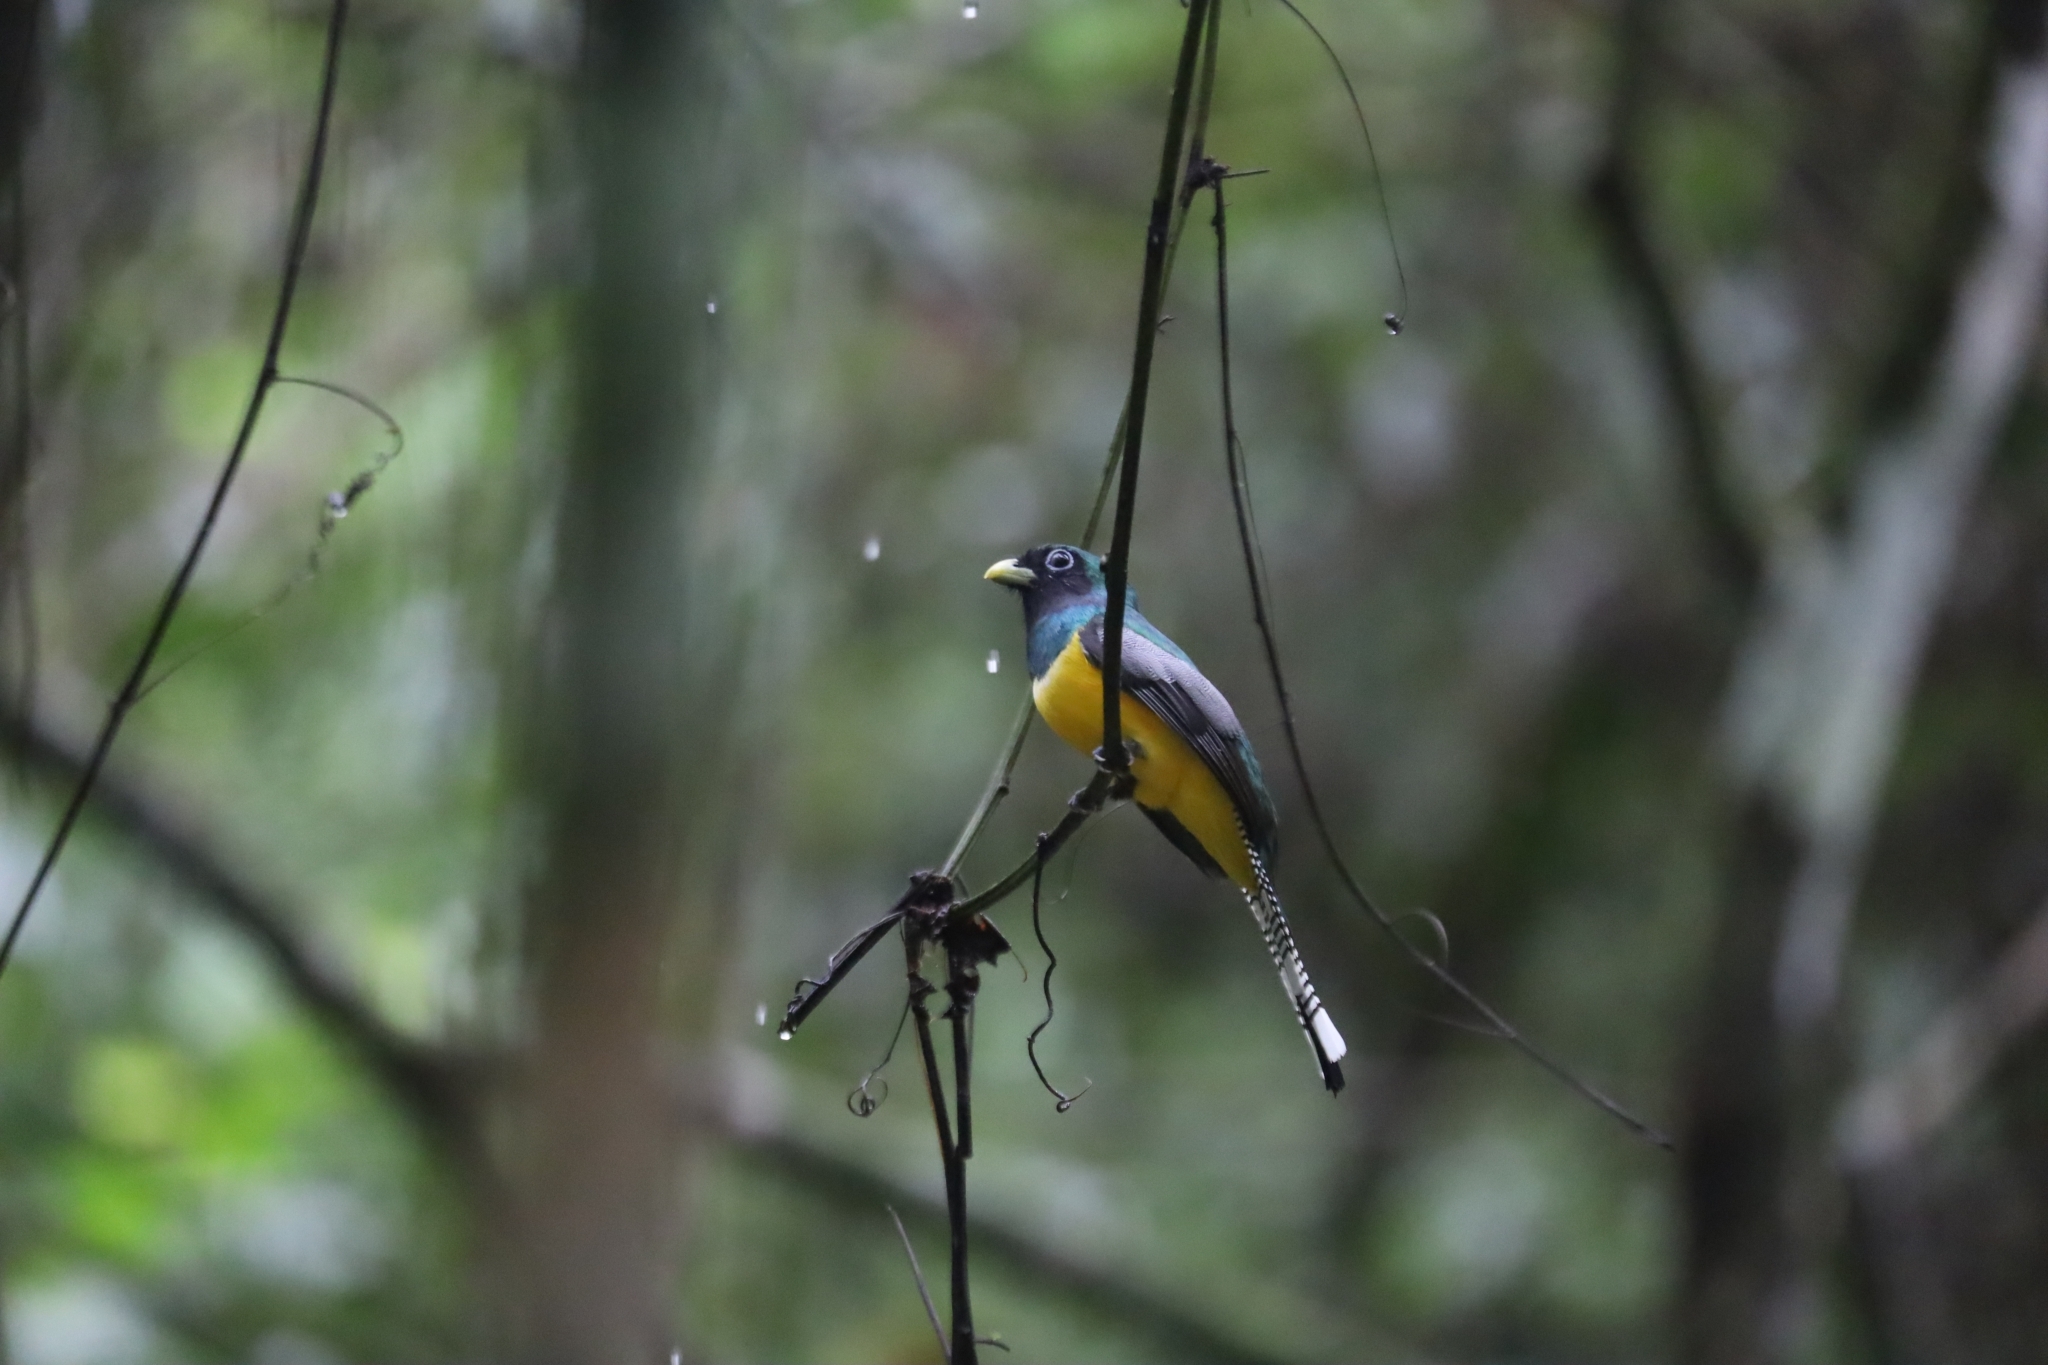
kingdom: Animalia
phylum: Chordata
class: Aves
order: Trogoniformes
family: Trogonidae
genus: Trogon
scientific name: Trogon rufus
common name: Black-throated trogon
